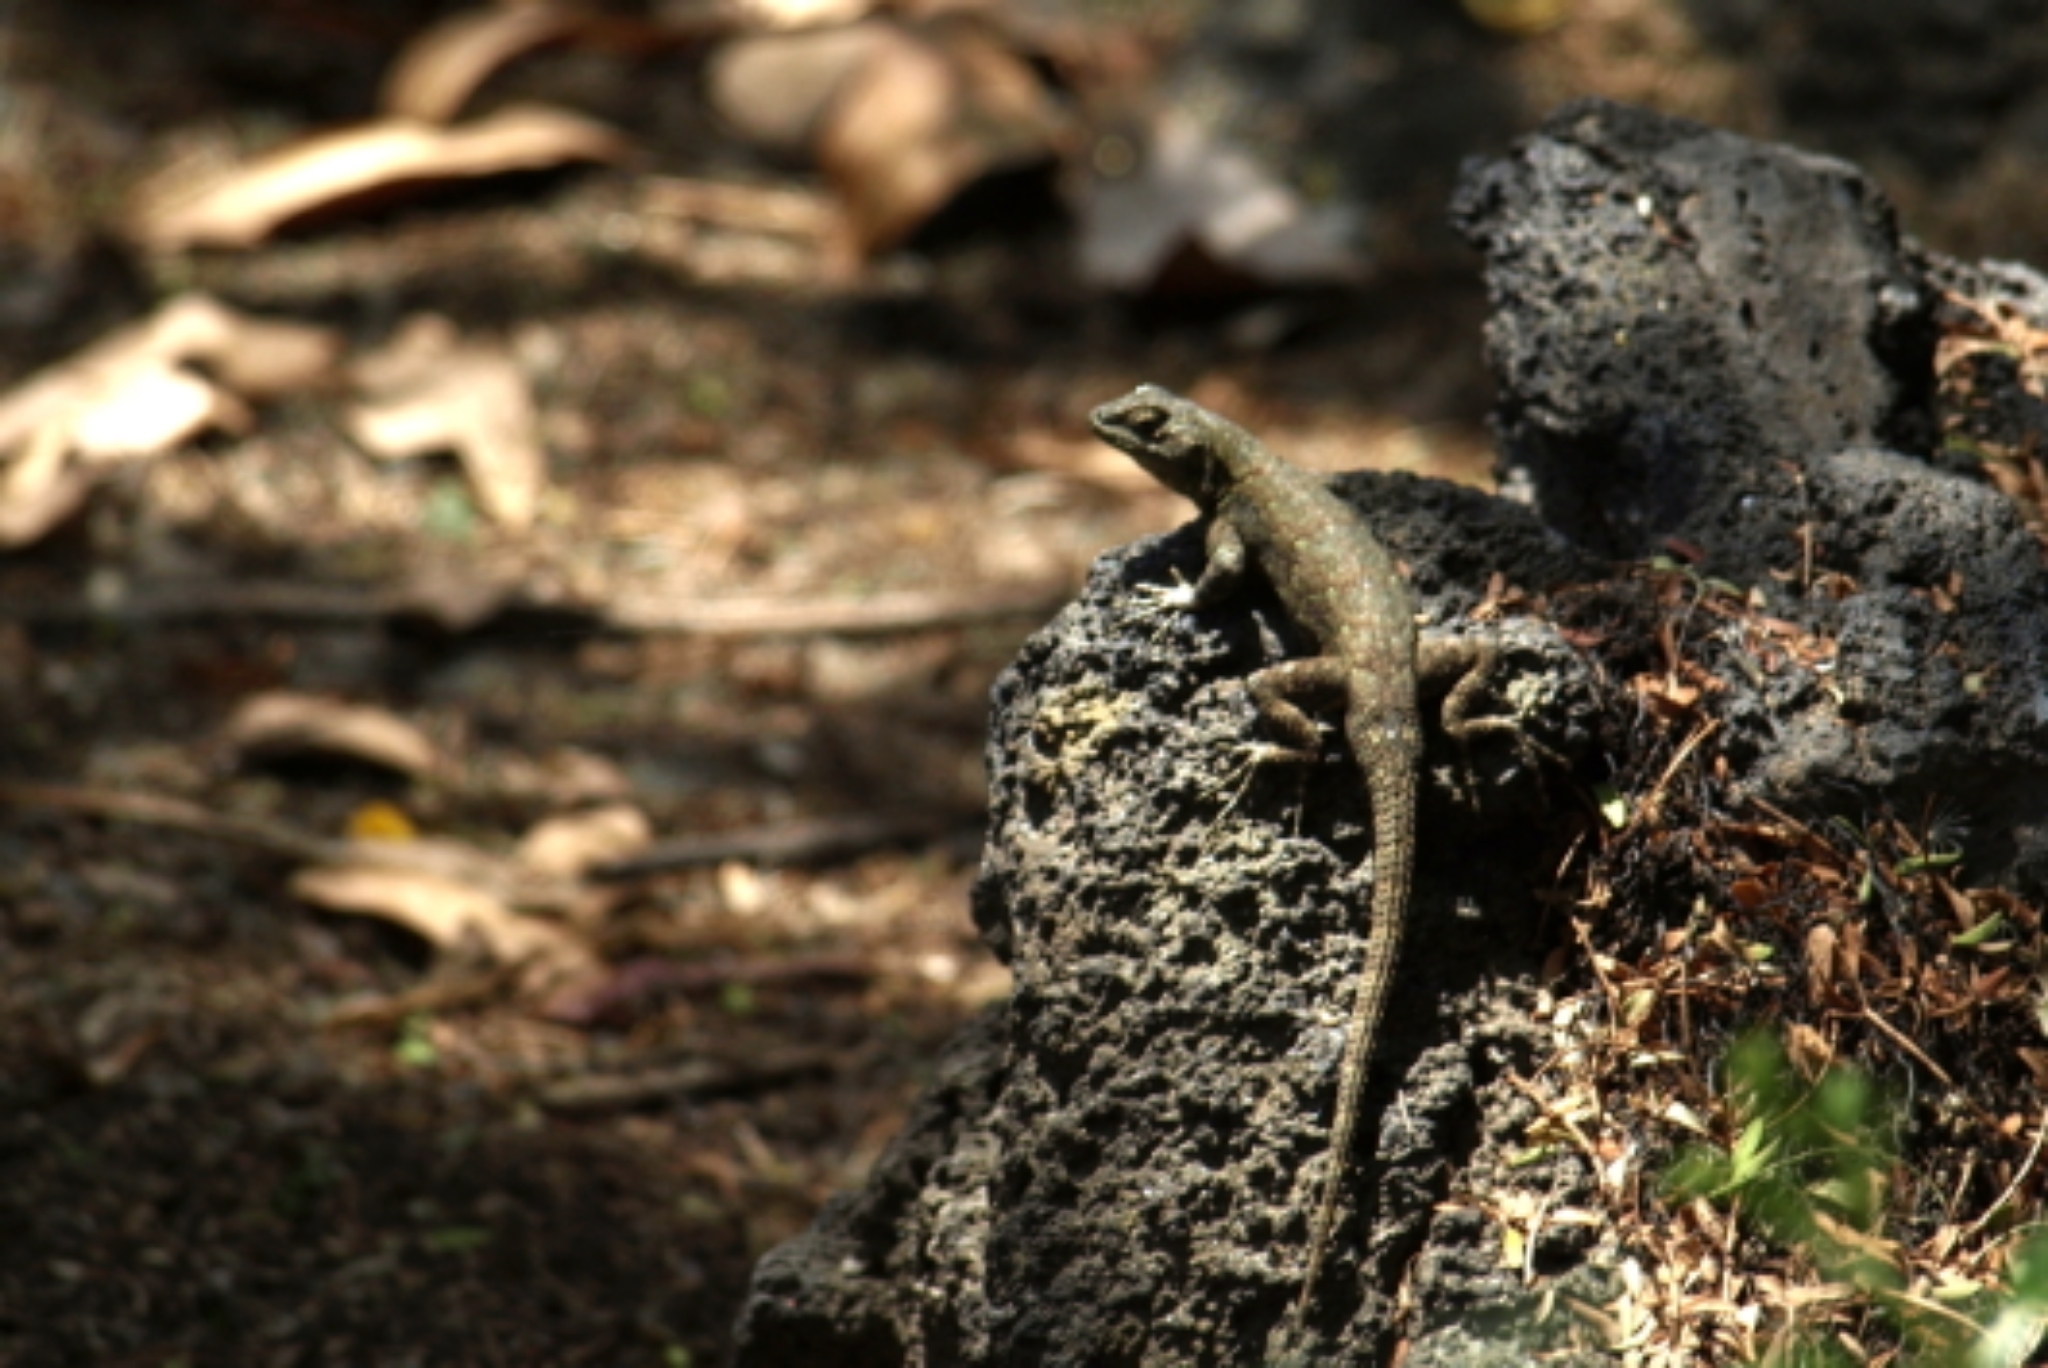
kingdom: Animalia
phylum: Chordata
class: Squamata
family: Phrynosomatidae
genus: Sceloporus
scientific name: Sceloporus grammicus
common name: Mesquite lizard
